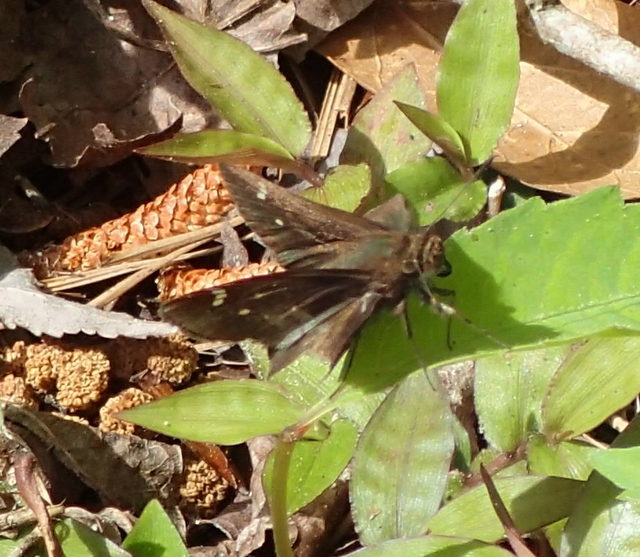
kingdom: Animalia
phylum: Arthropoda
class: Insecta
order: Lepidoptera
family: Hesperiidae
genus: Lerema
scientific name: Lerema accius
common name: Clouded skipper
